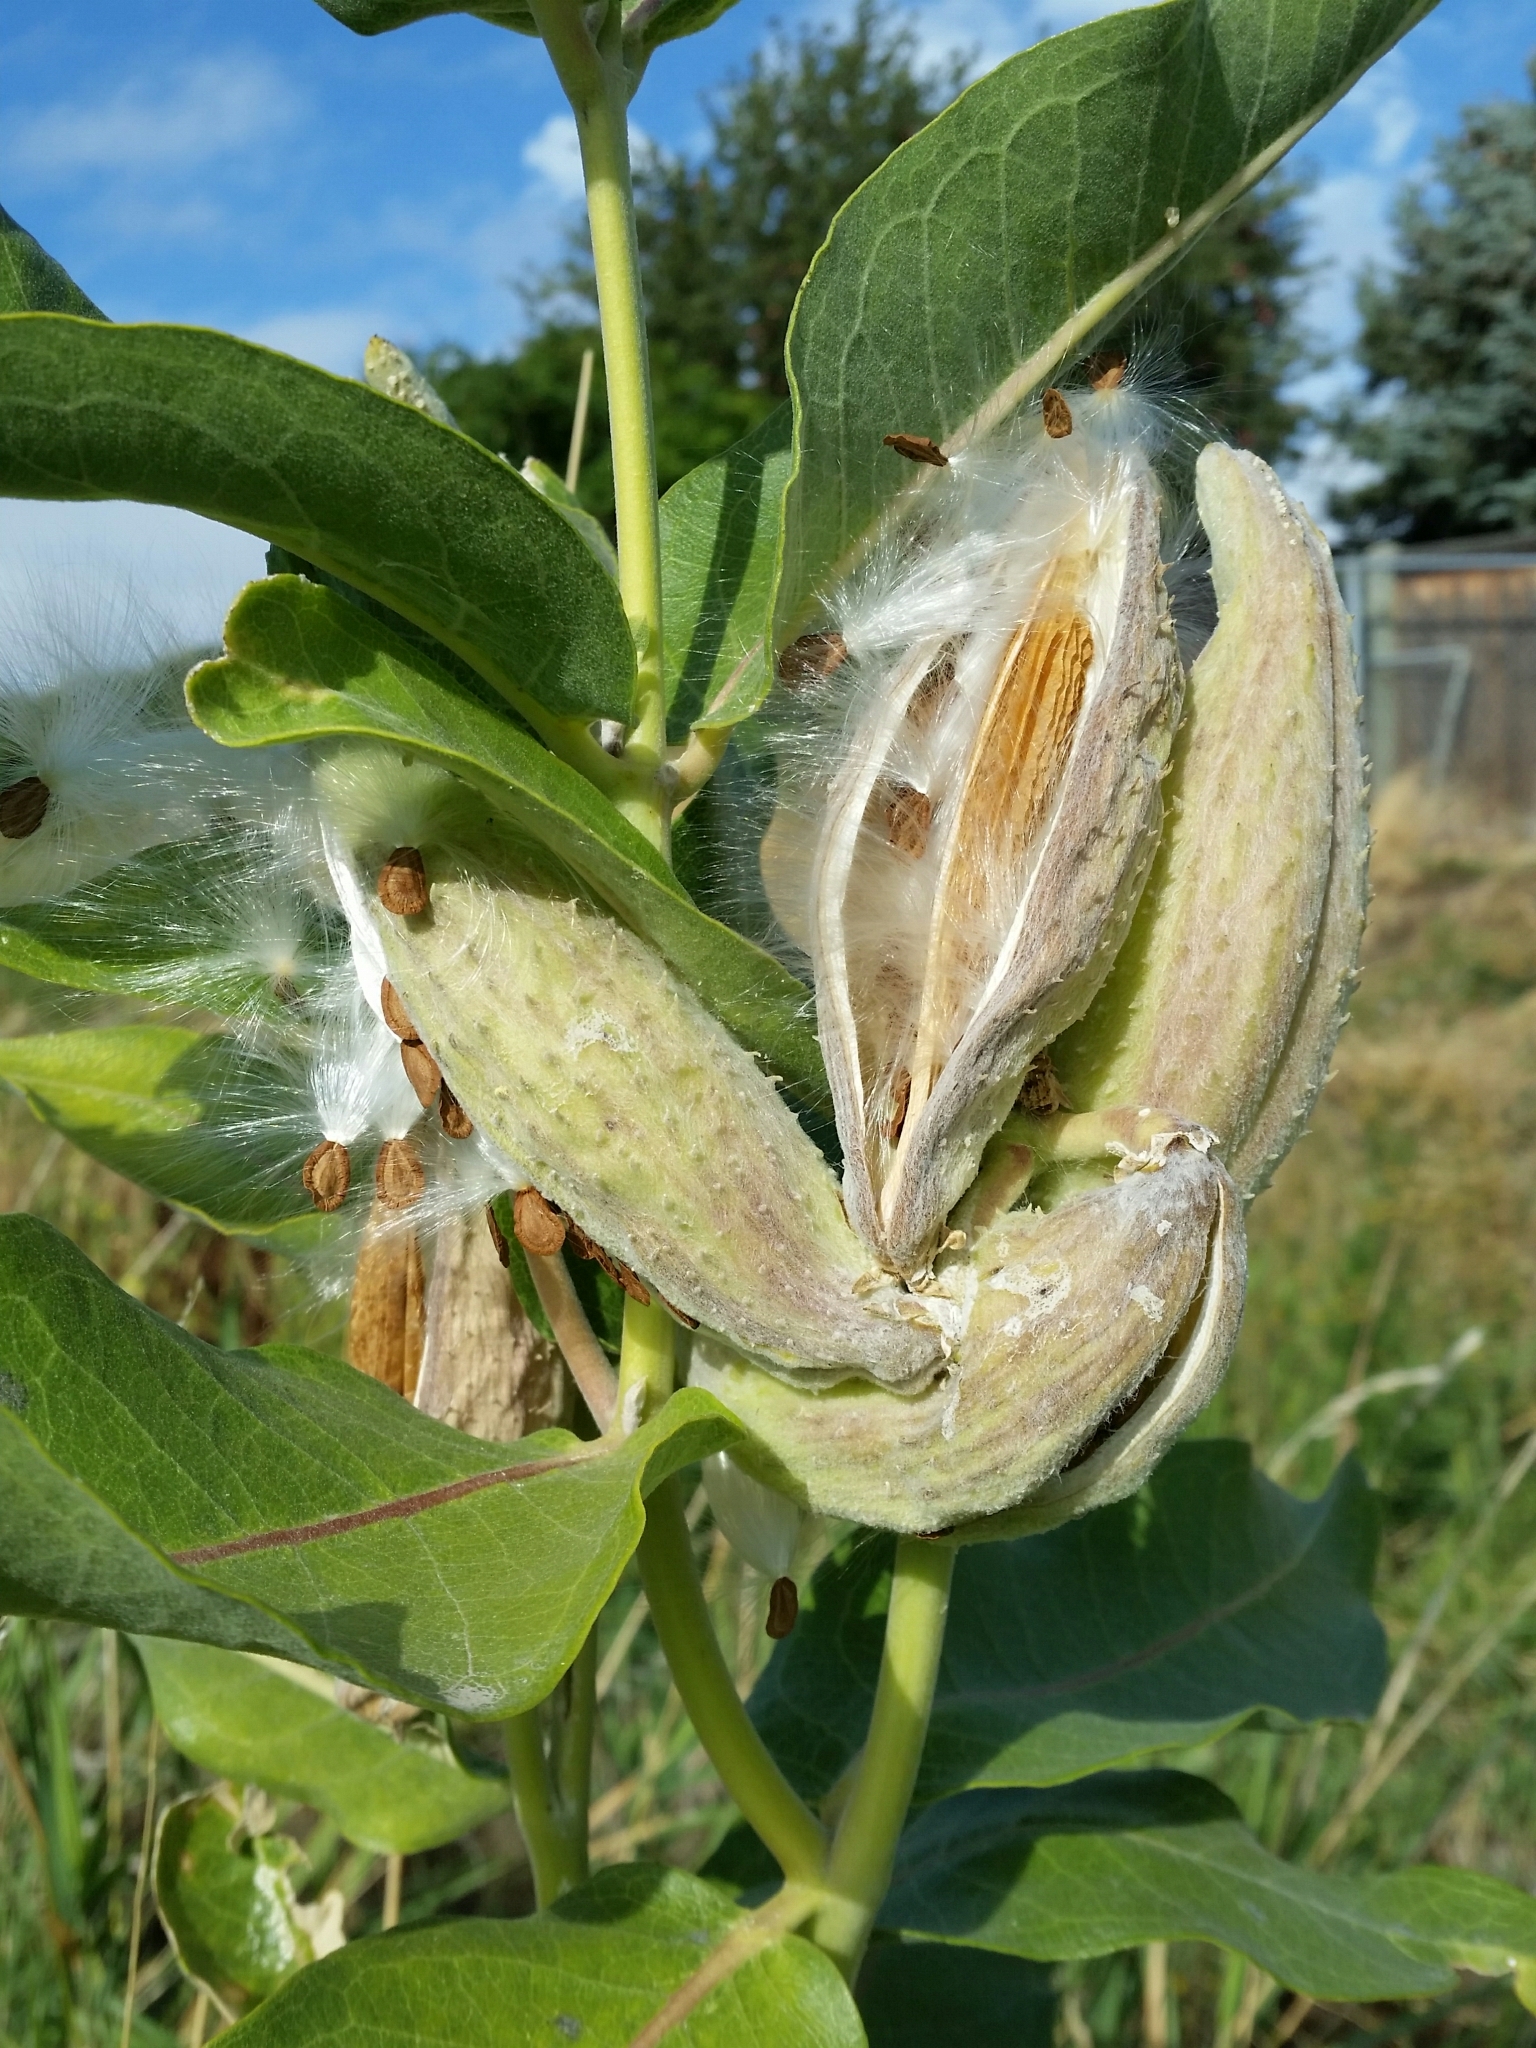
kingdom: Plantae
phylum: Tracheophyta
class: Magnoliopsida
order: Gentianales
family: Apocynaceae
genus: Asclepias
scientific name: Asclepias speciosa
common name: Showy milkweed
